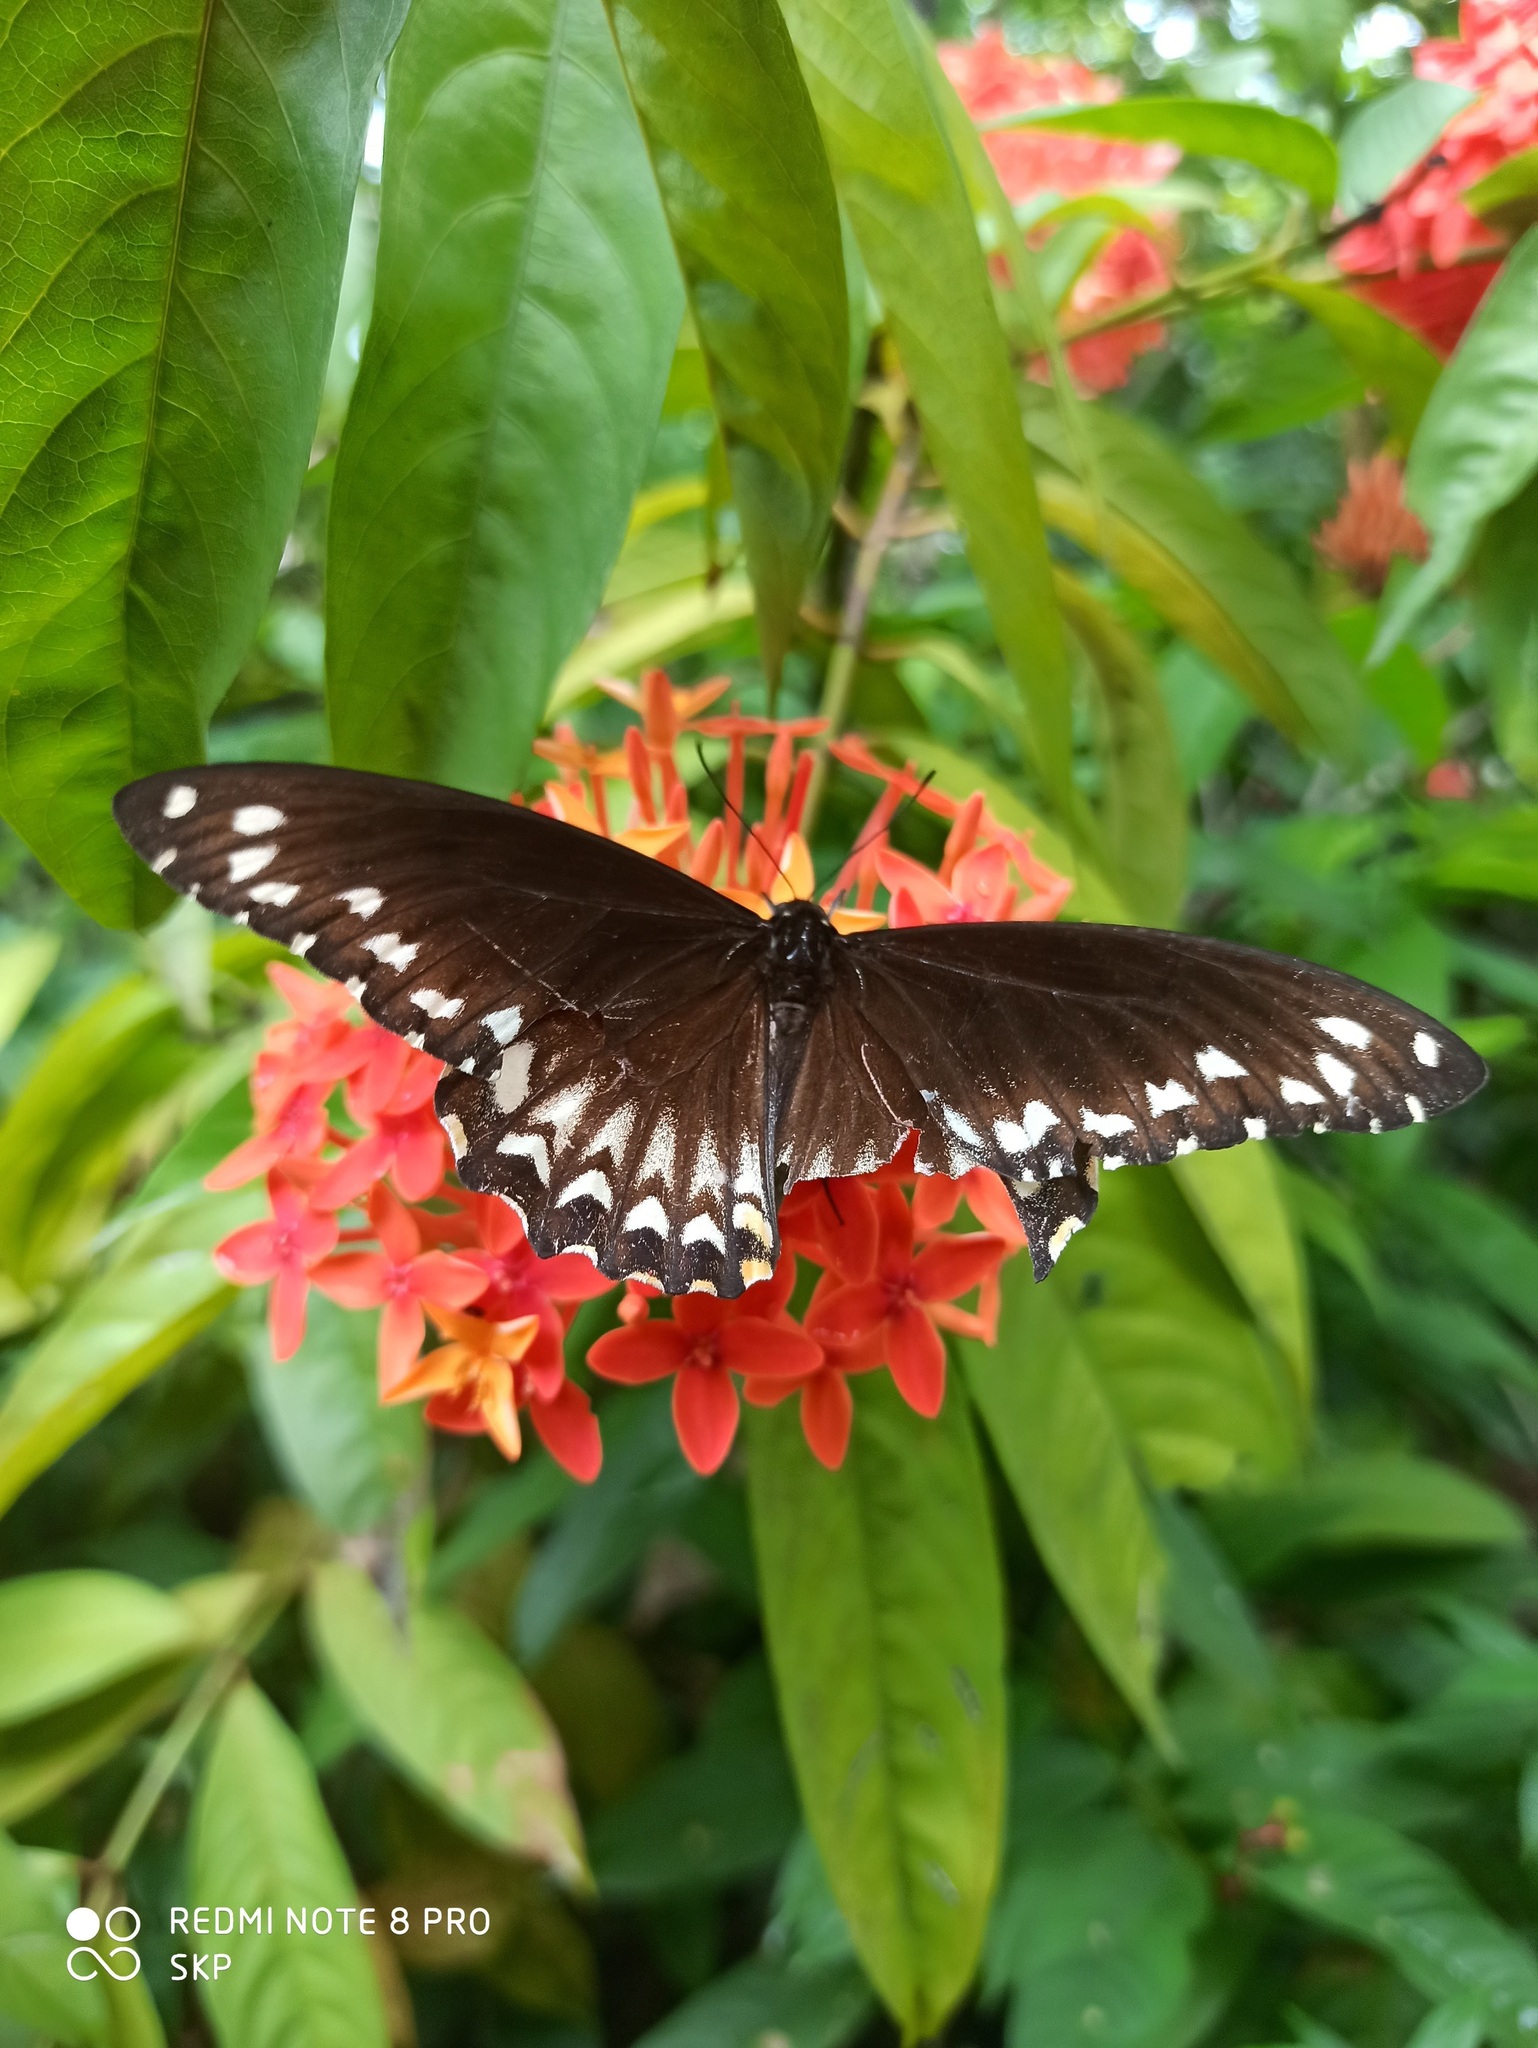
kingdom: Animalia
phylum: Arthropoda
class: Insecta
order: Lepidoptera
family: Papilionidae
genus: Chilasa
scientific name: Chilasa clytia
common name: Common mime
